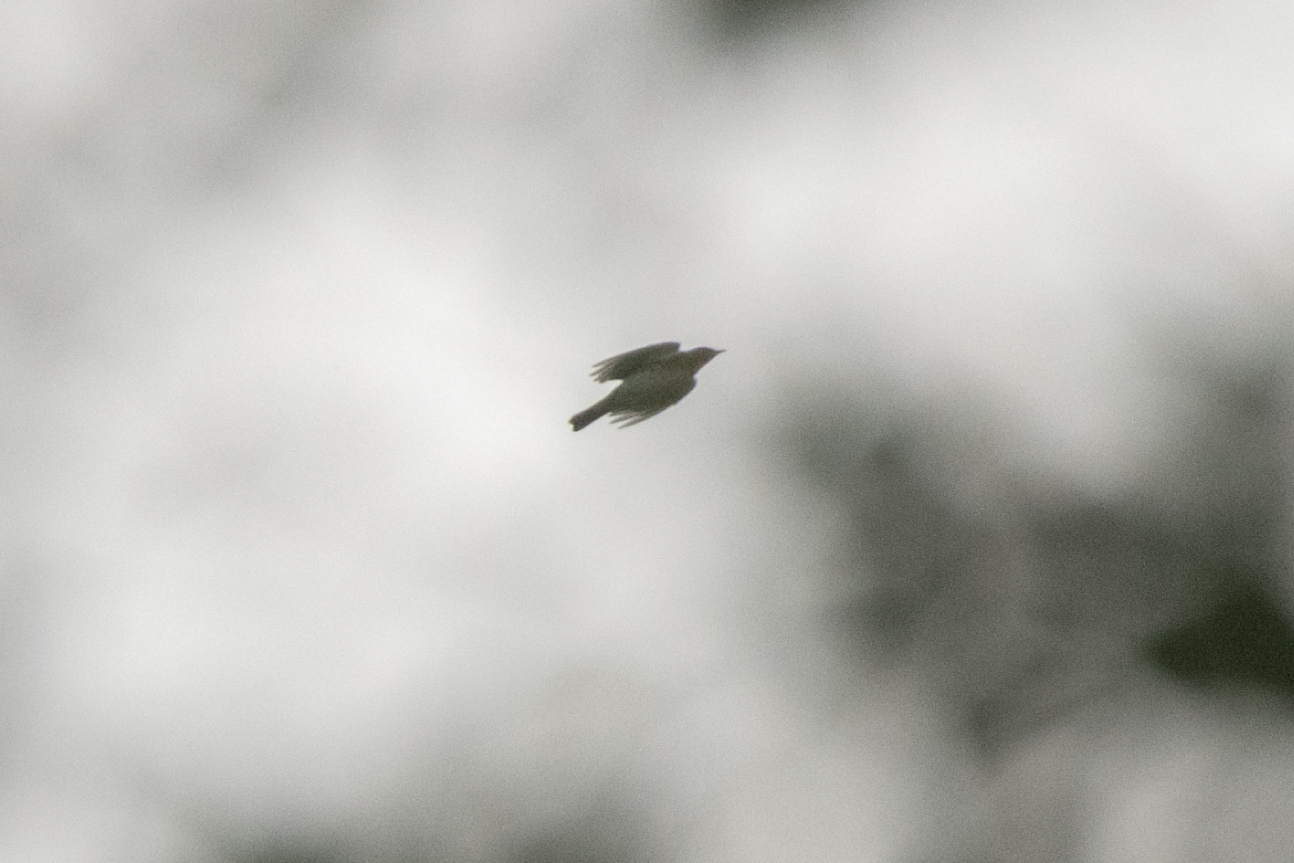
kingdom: Animalia
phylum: Chordata
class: Aves
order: Passeriformes
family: Turdidae
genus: Turdus
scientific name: Turdus pilaris
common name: Fieldfare
